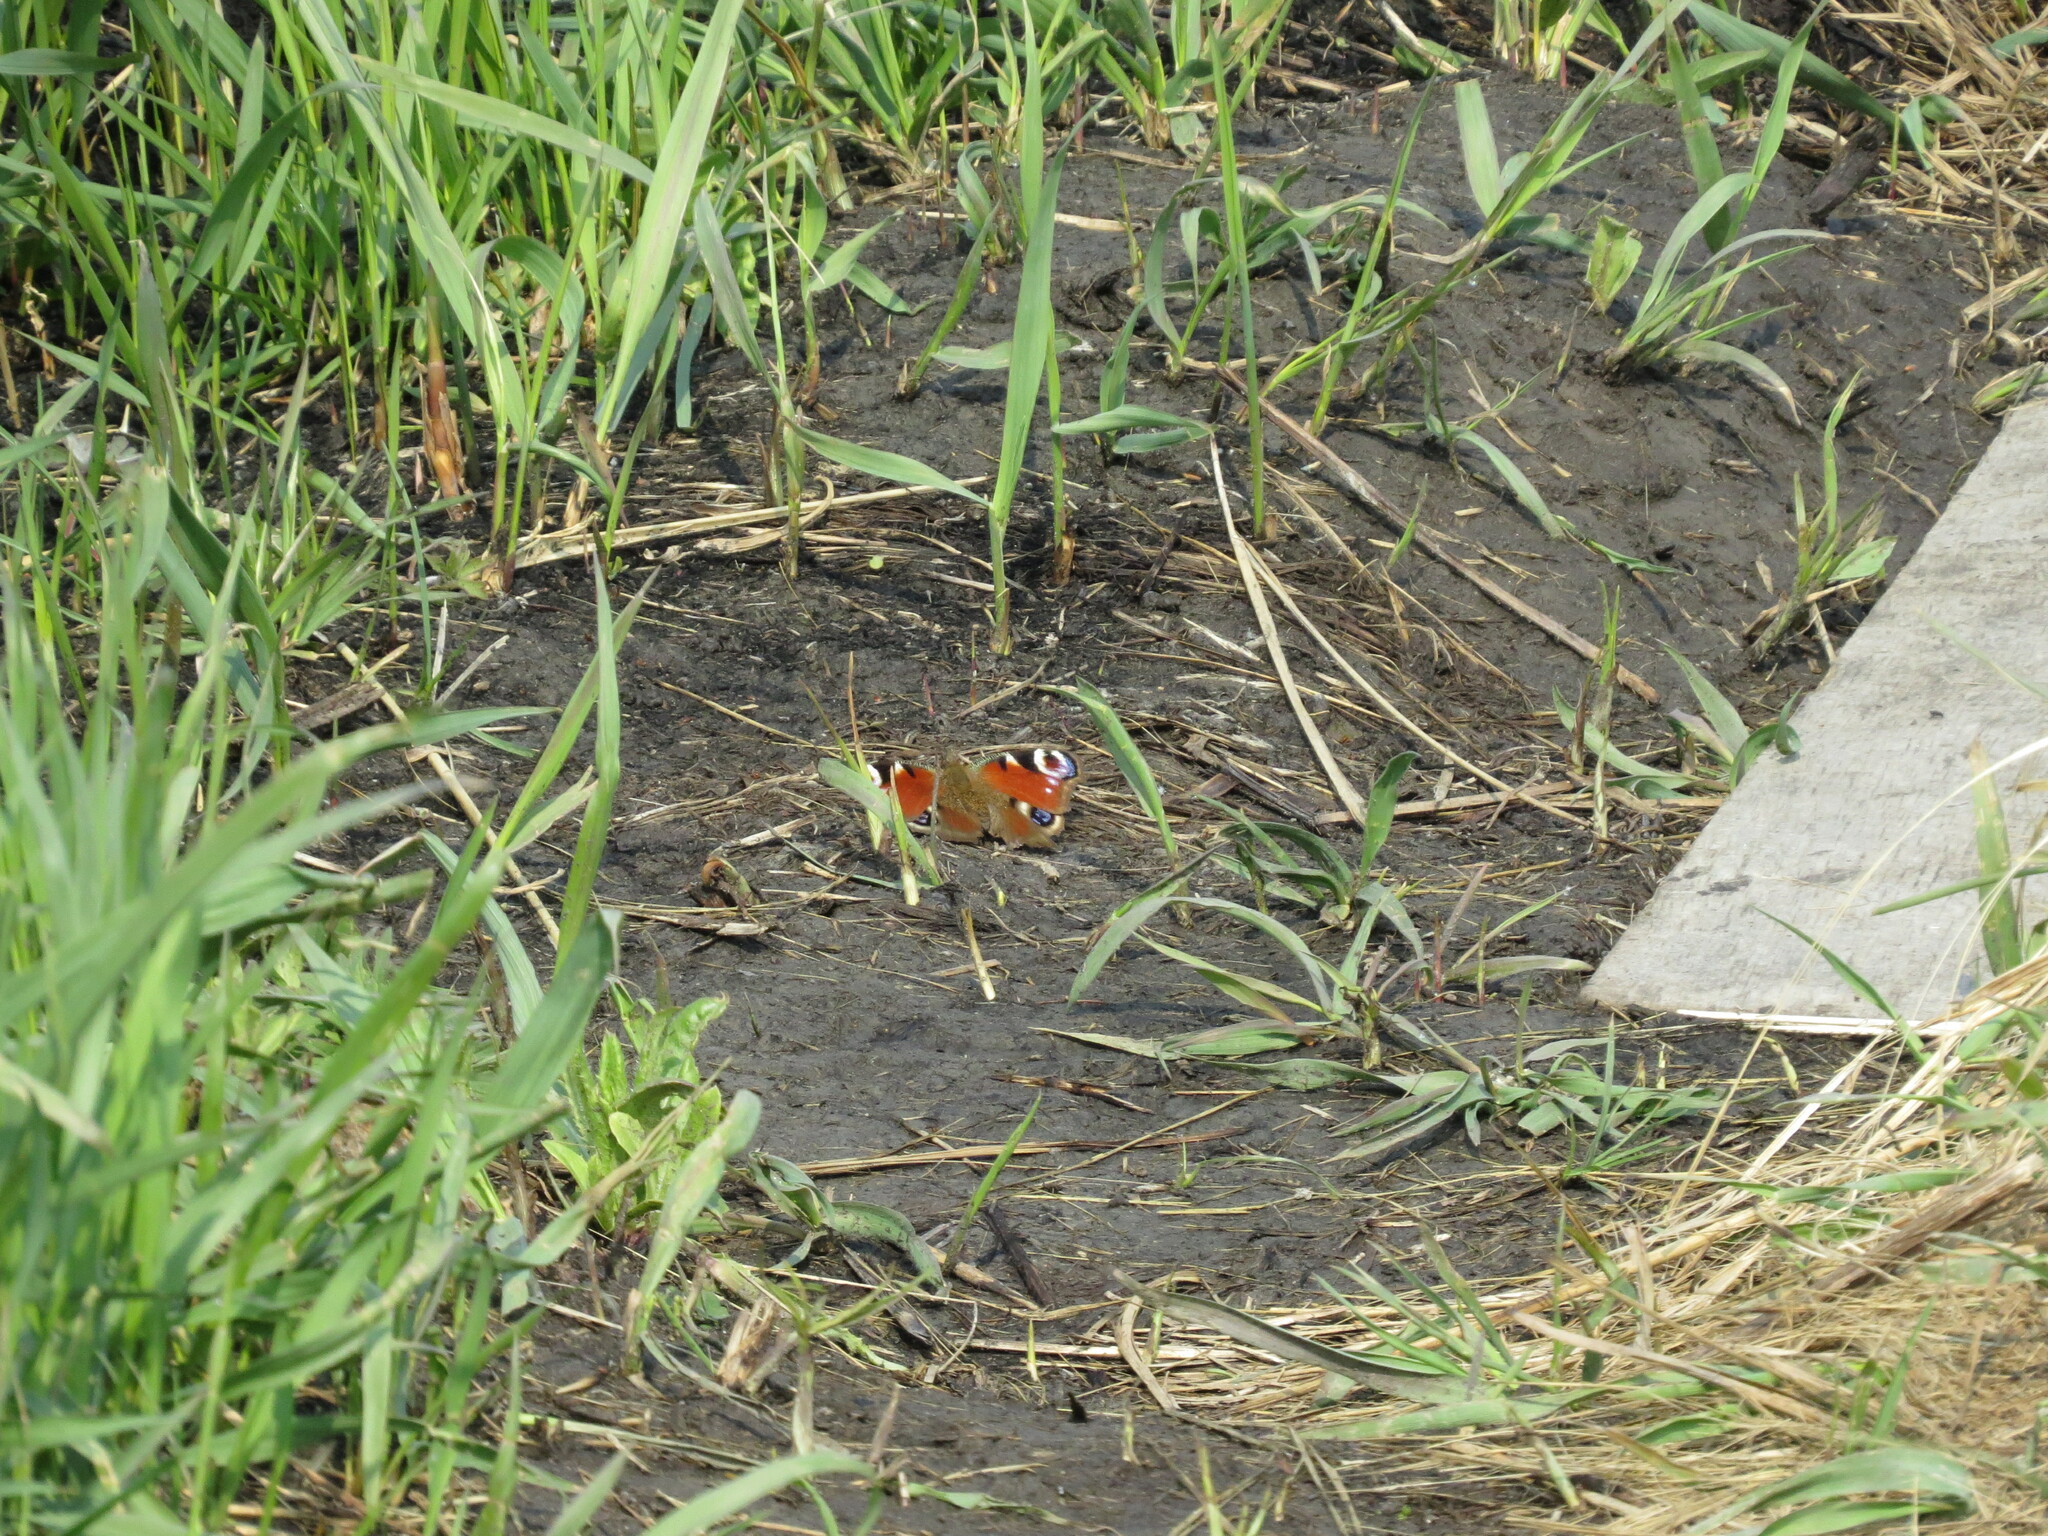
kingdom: Animalia
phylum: Arthropoda
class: Insecta
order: Lepidoptera
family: Nymphalidae
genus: Aglais
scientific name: Aglais io
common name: Peacock
